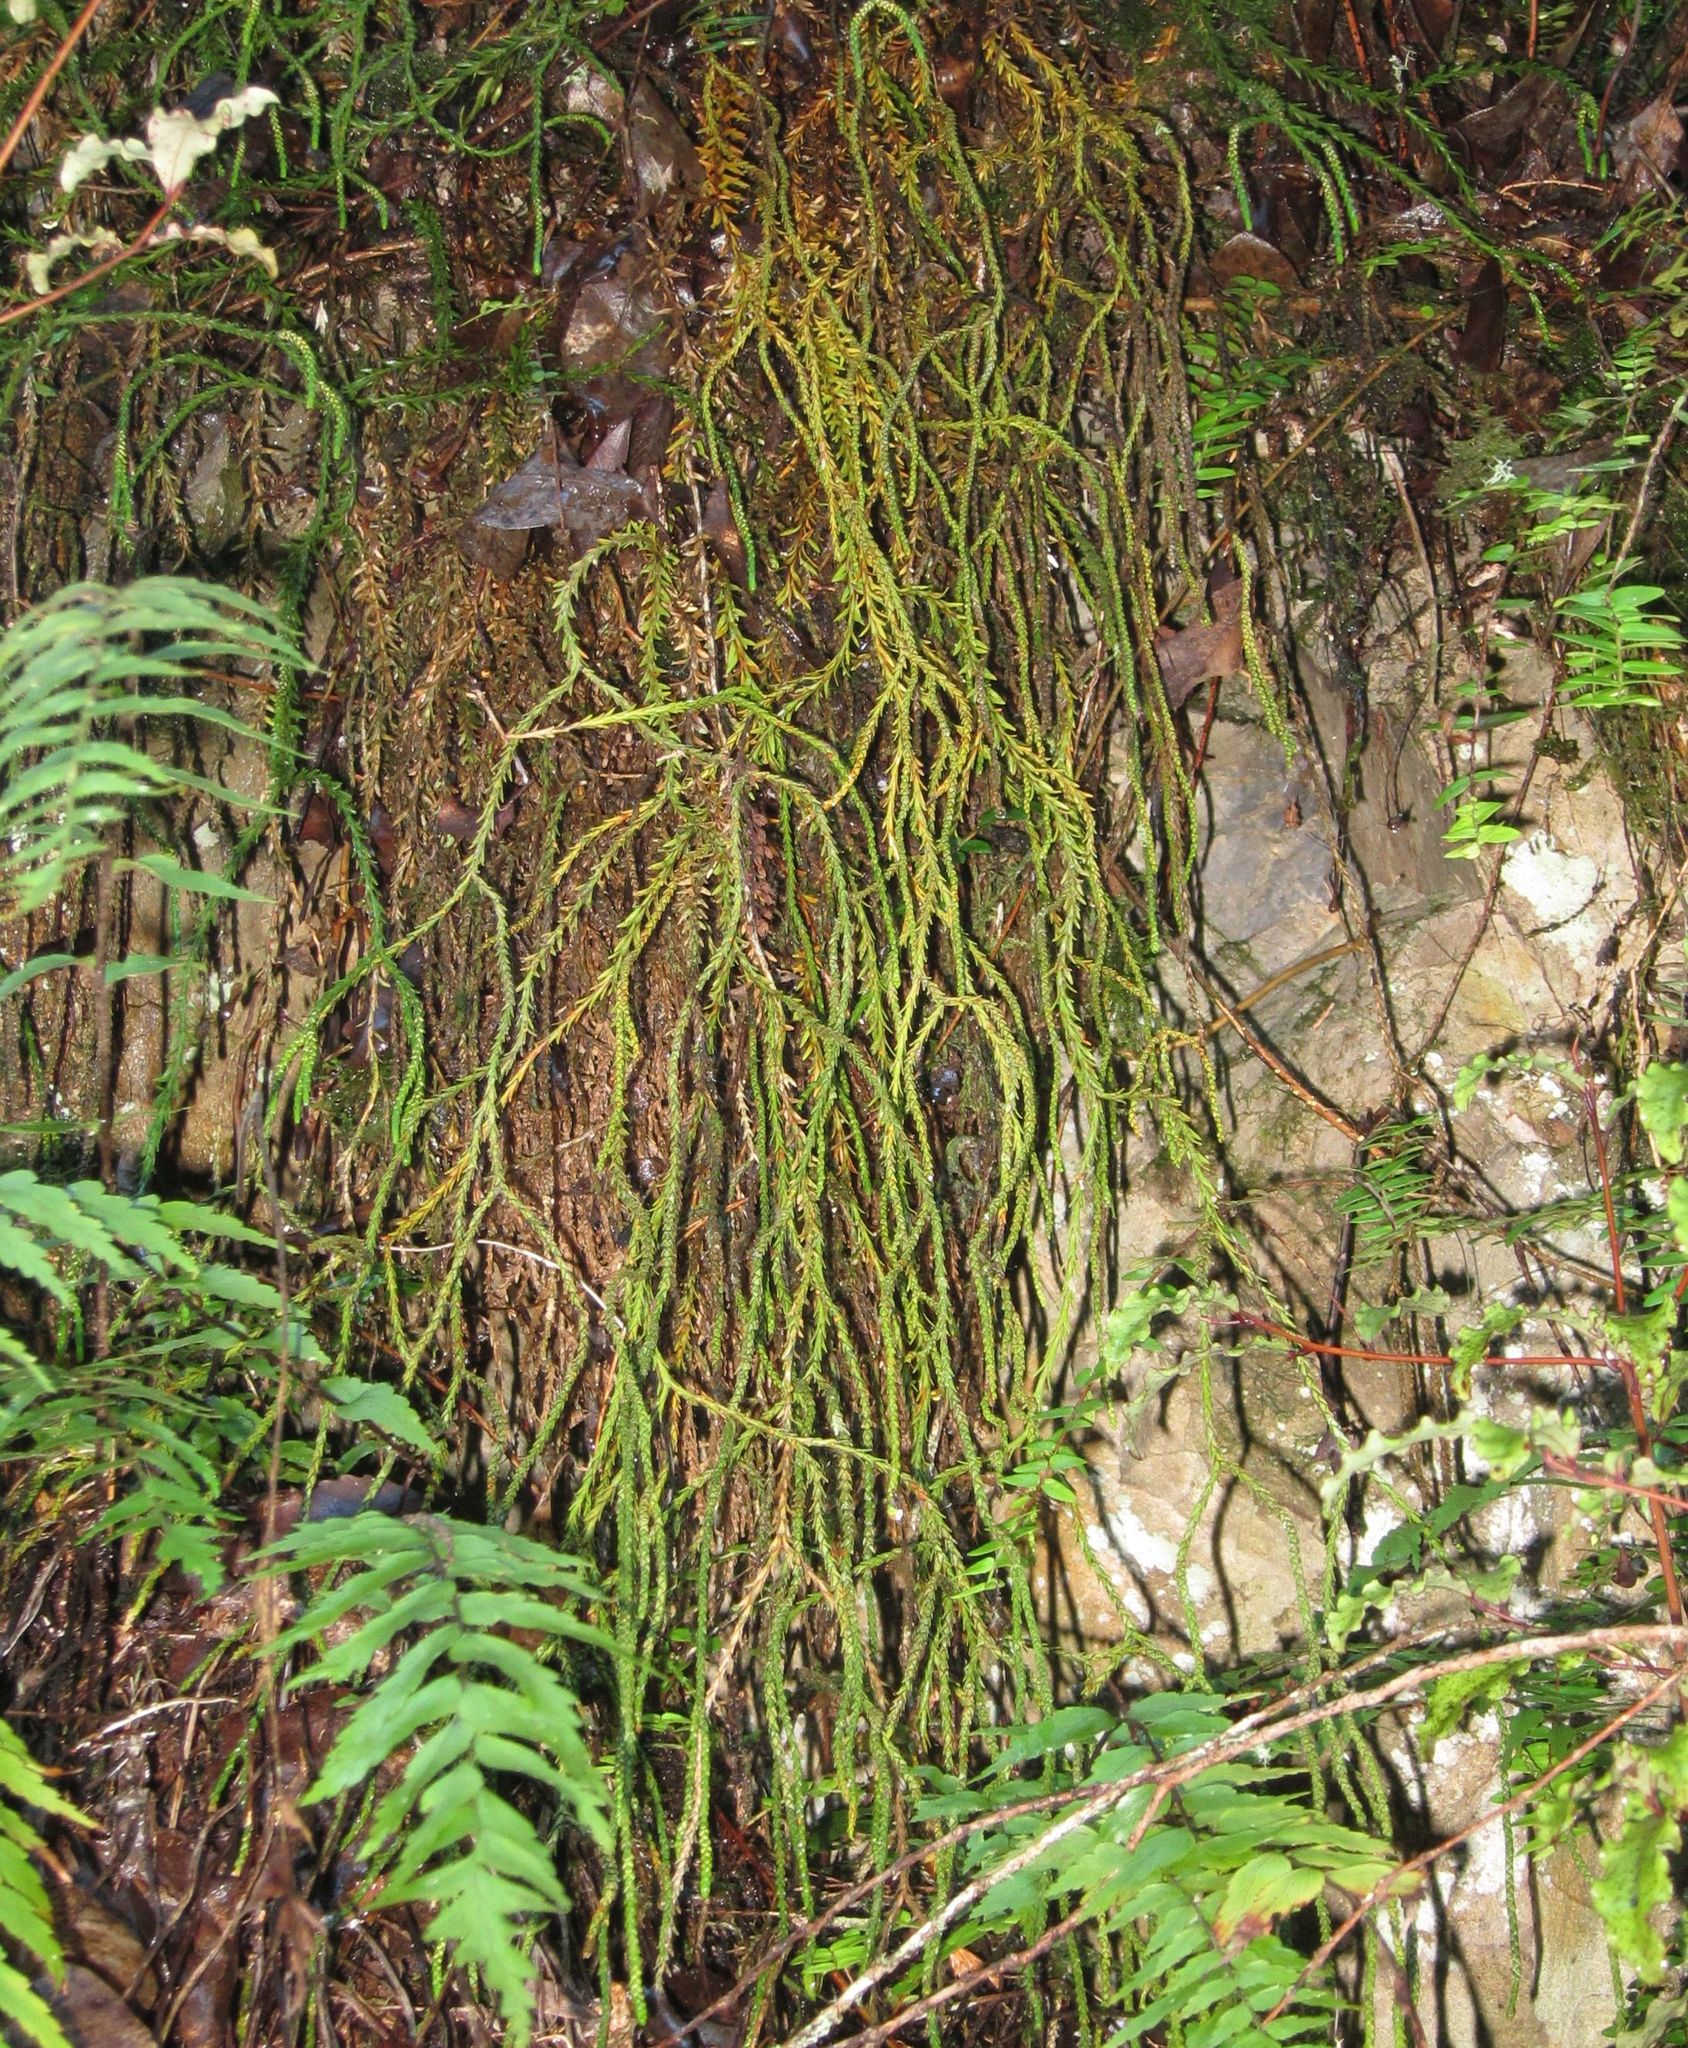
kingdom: Plantae
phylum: Tracheophyta
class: Lycopodiopsida
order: Lycopodiales
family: Lycopodiaceae
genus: Phlegmariurus
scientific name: Phlegmariurus varius
